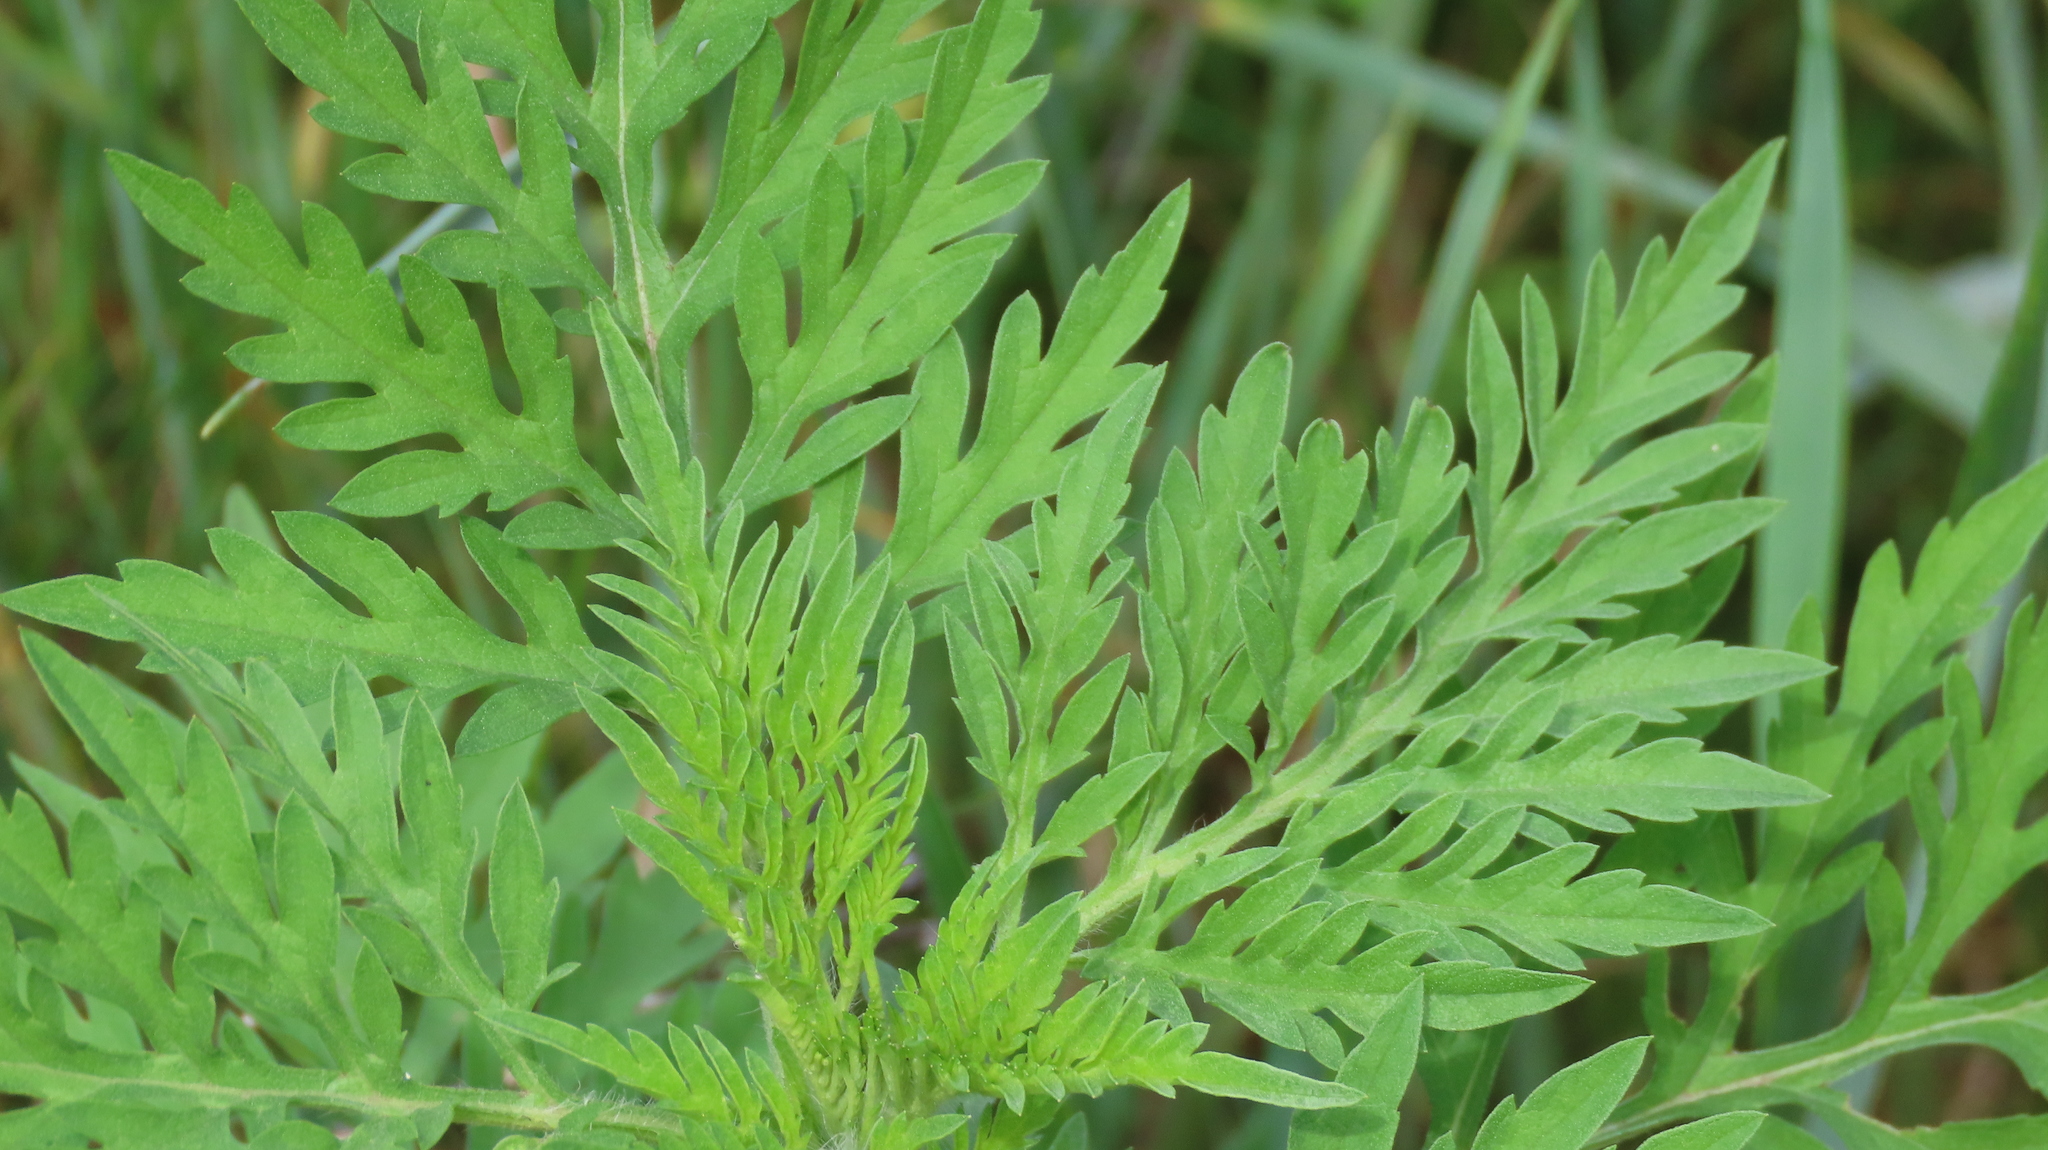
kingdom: Plantae
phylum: Tracheophyta
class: Magnoliopsida
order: Asterales
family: Asteraceae
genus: Ambrosia
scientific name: Ambrosia artemisiifolia
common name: Annual ragweed
